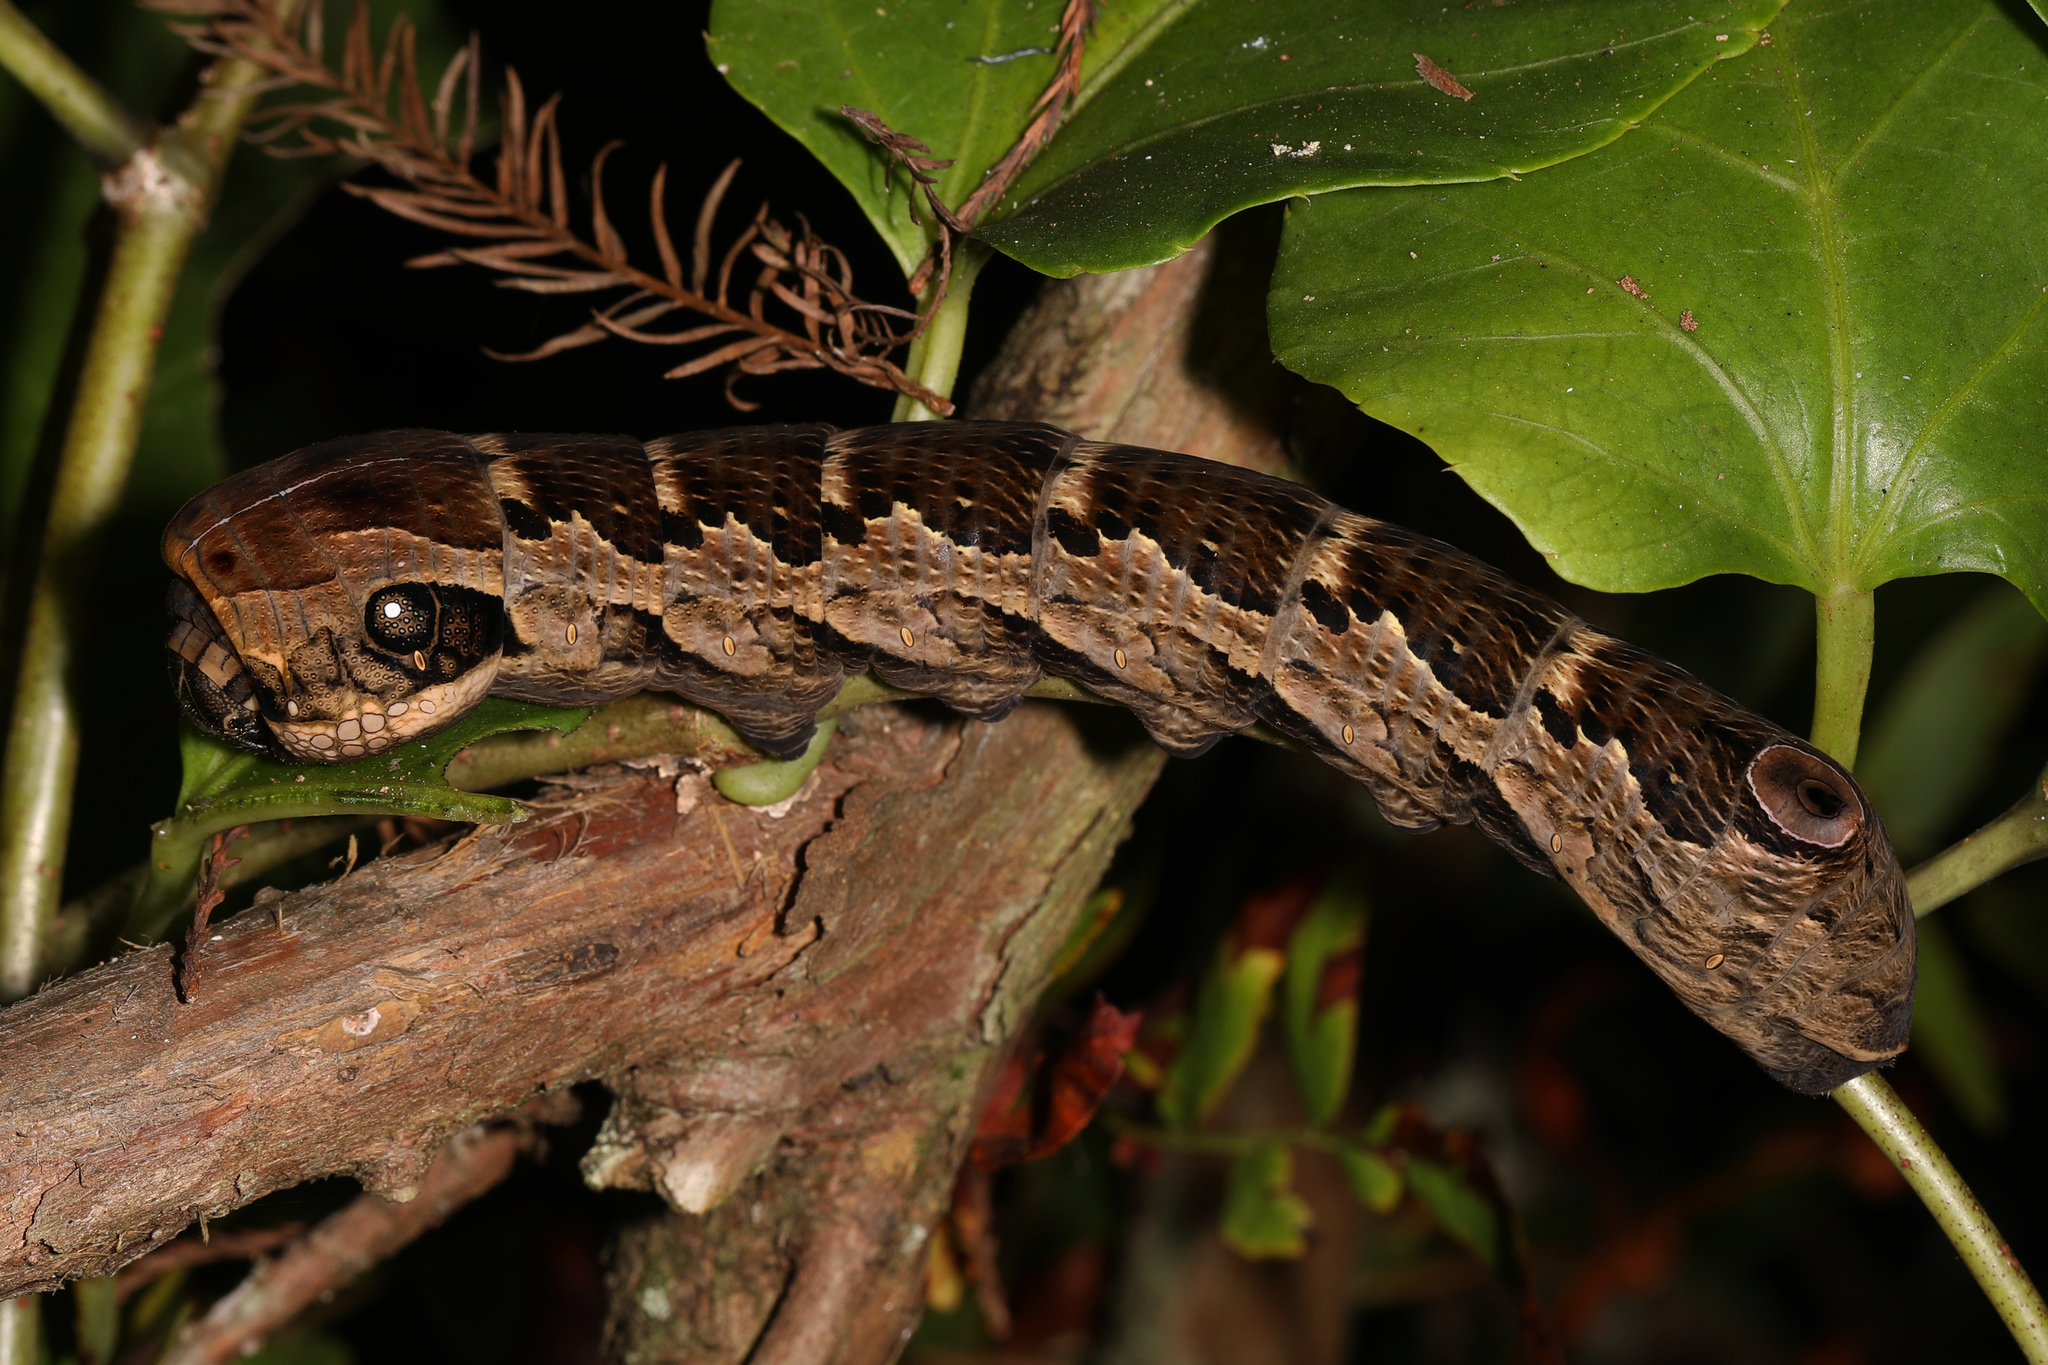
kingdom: Animalia
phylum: Arthropoda
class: Insecta
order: Lepidoptera
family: Sphingidae
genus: Eumorpha
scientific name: Eumorpha labruscae
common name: Gaudy sphinx
